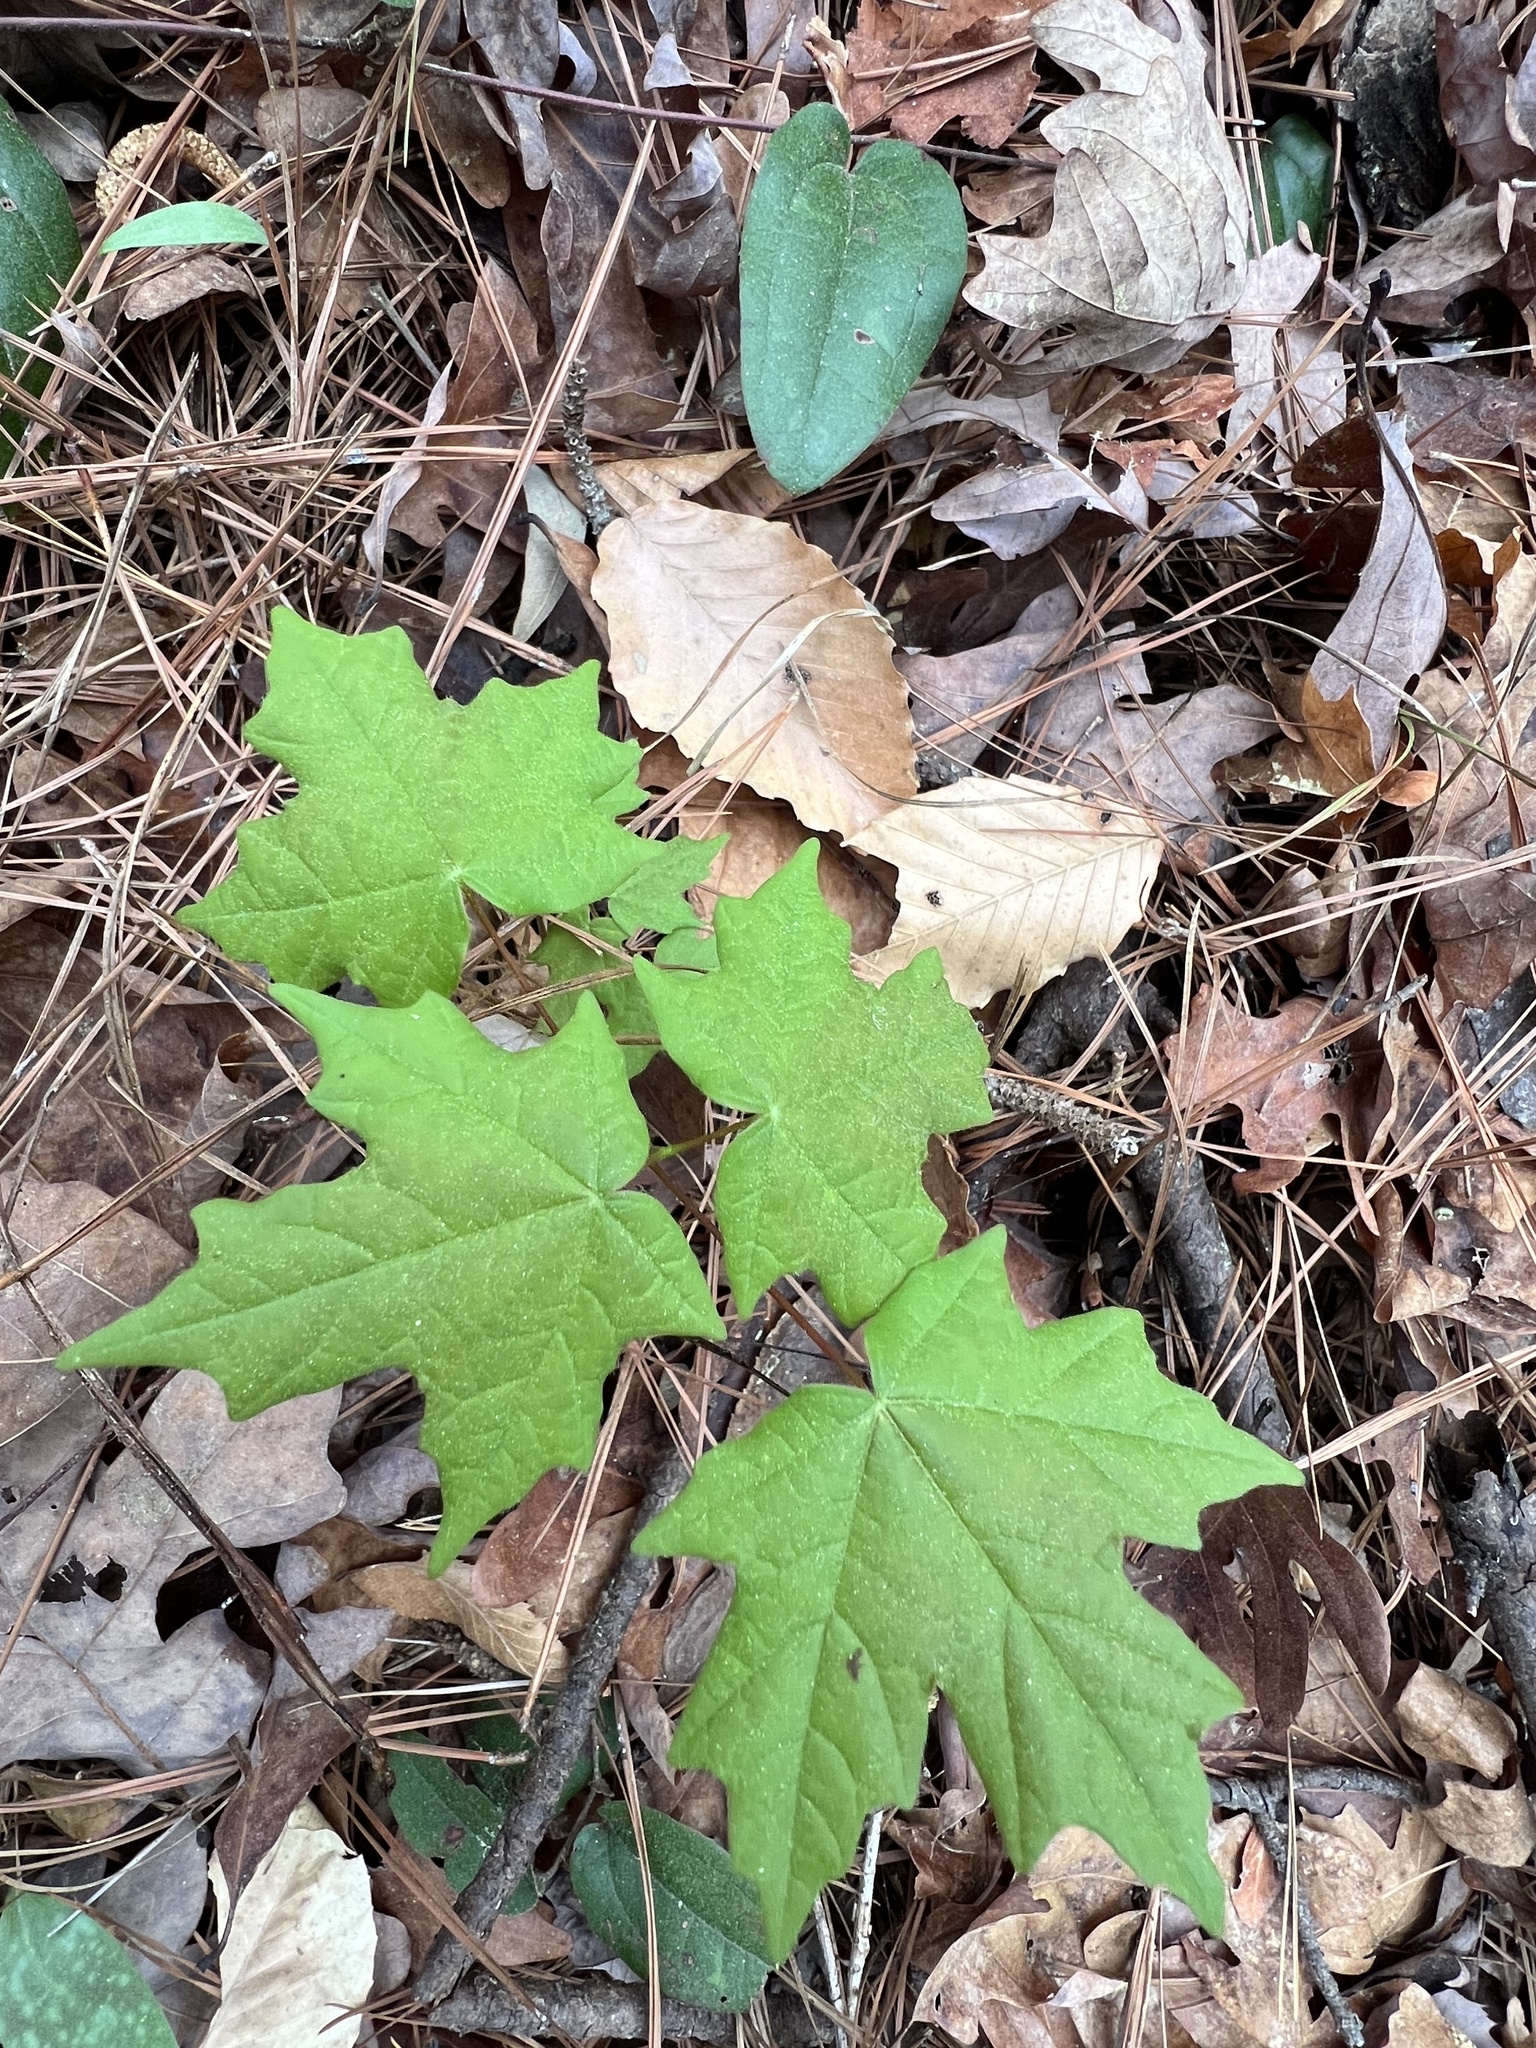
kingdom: Plantae
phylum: Tracheophyta
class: Magnoliopsida
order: Sapindales
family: Sapindaceae
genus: Acer
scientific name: Acer floridanum
